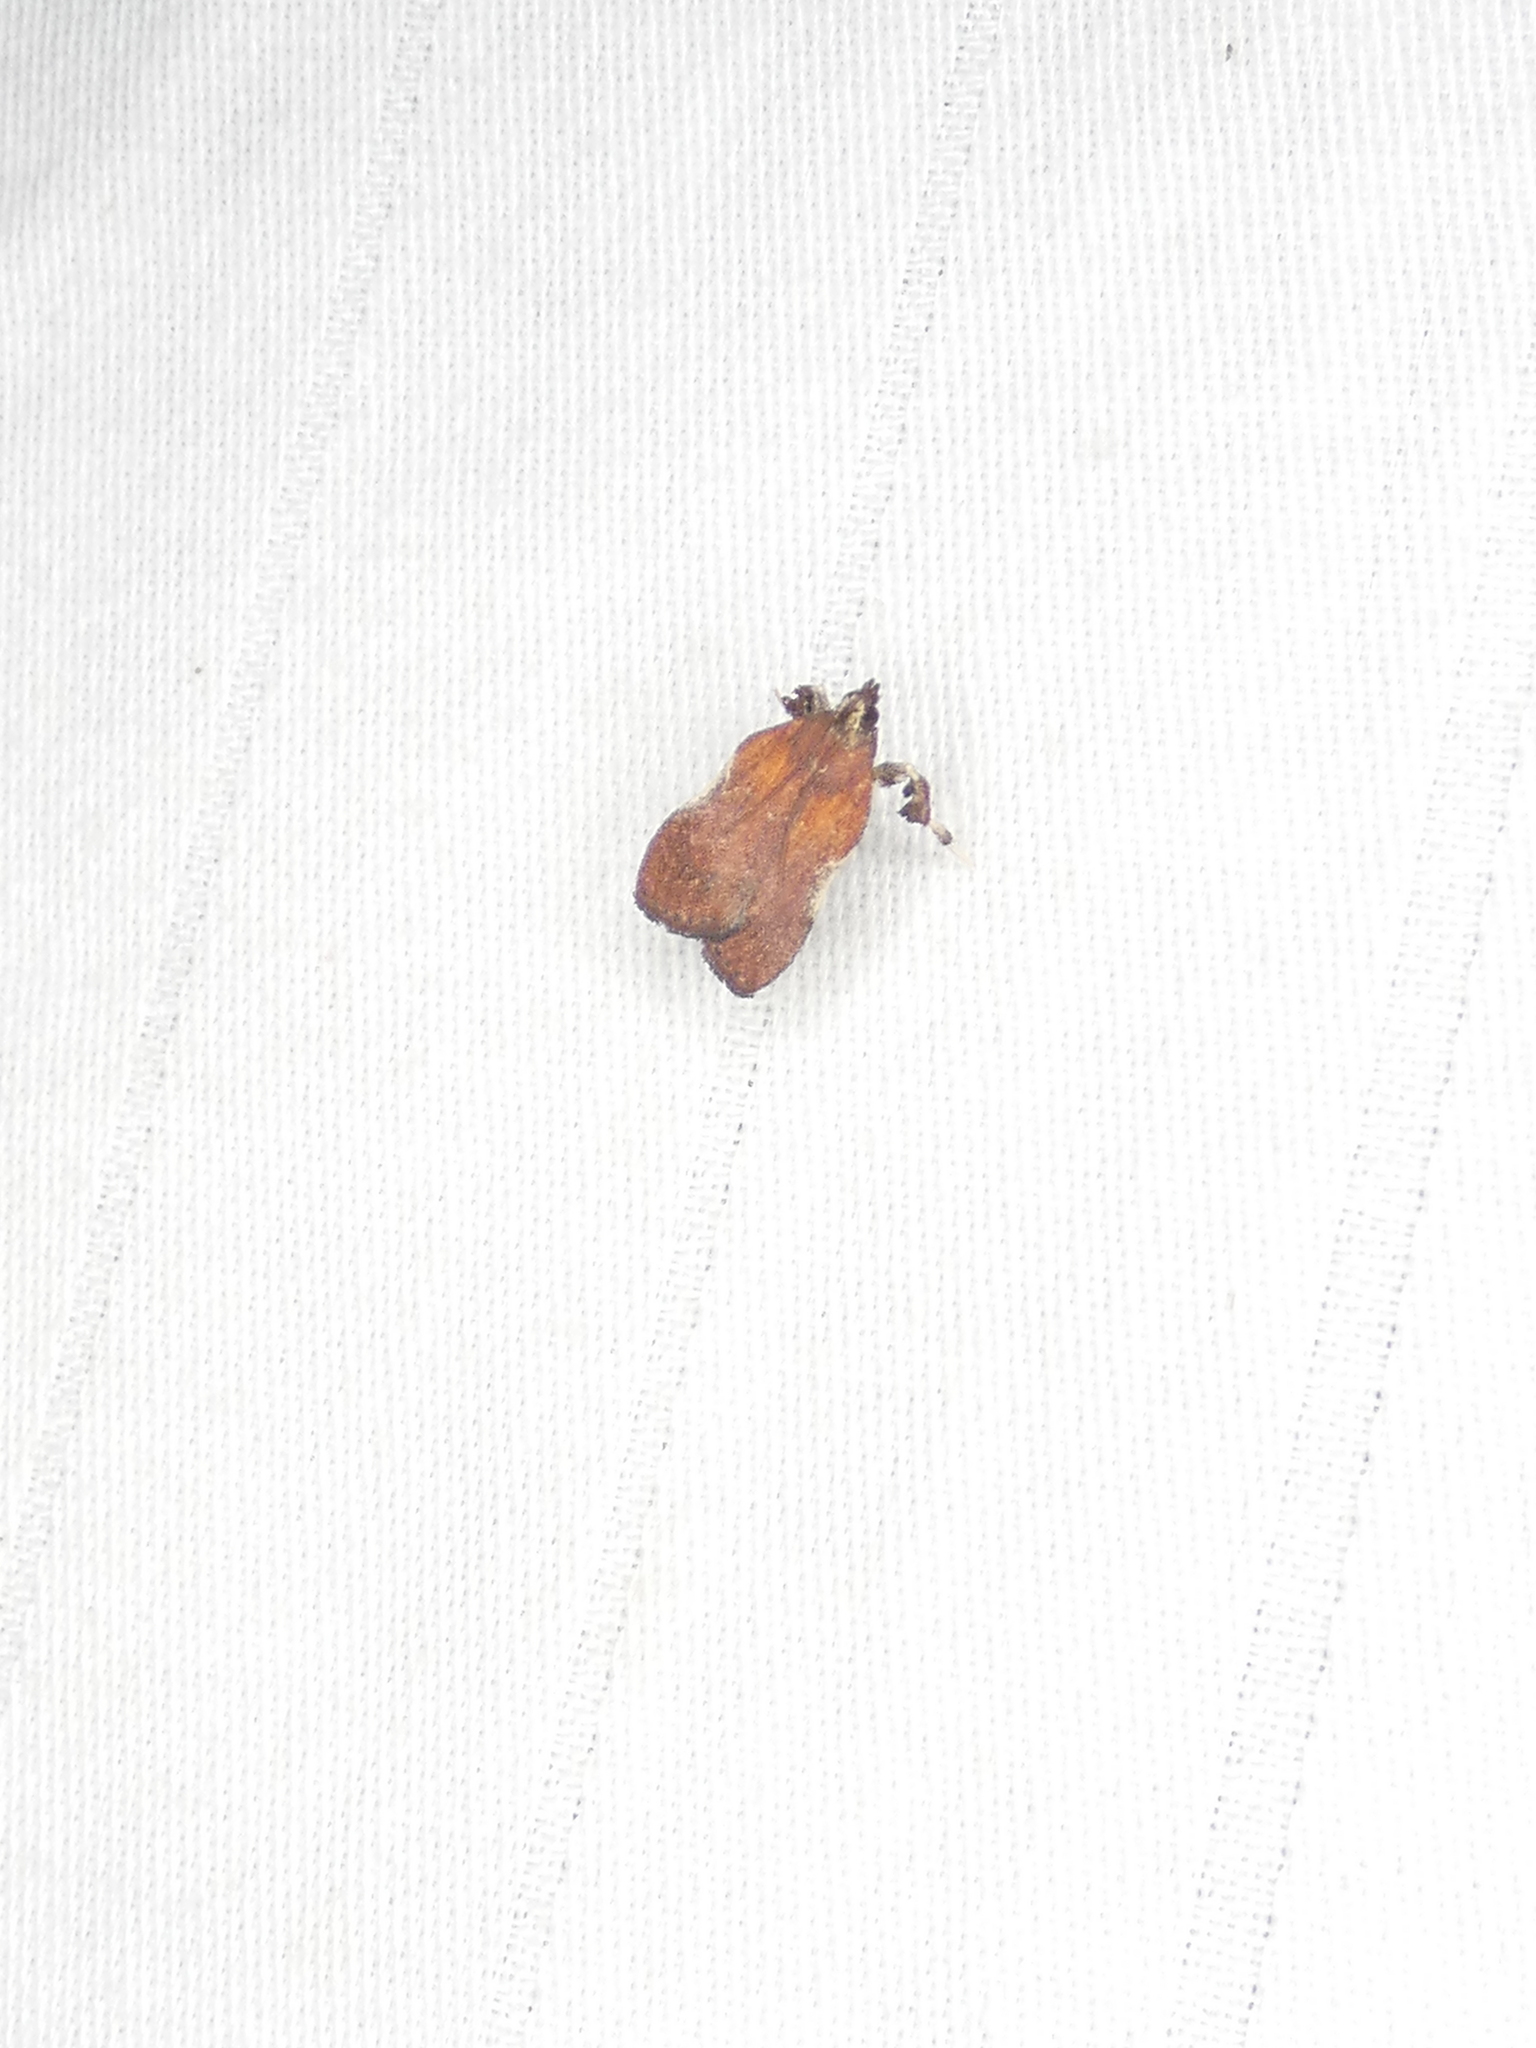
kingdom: Animalia
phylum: Arthropoda
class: Insecta
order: Lepidoptera
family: Pyralidae
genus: Galasa
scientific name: Galasa nigrinodis
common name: Boxwood leaftier moth
